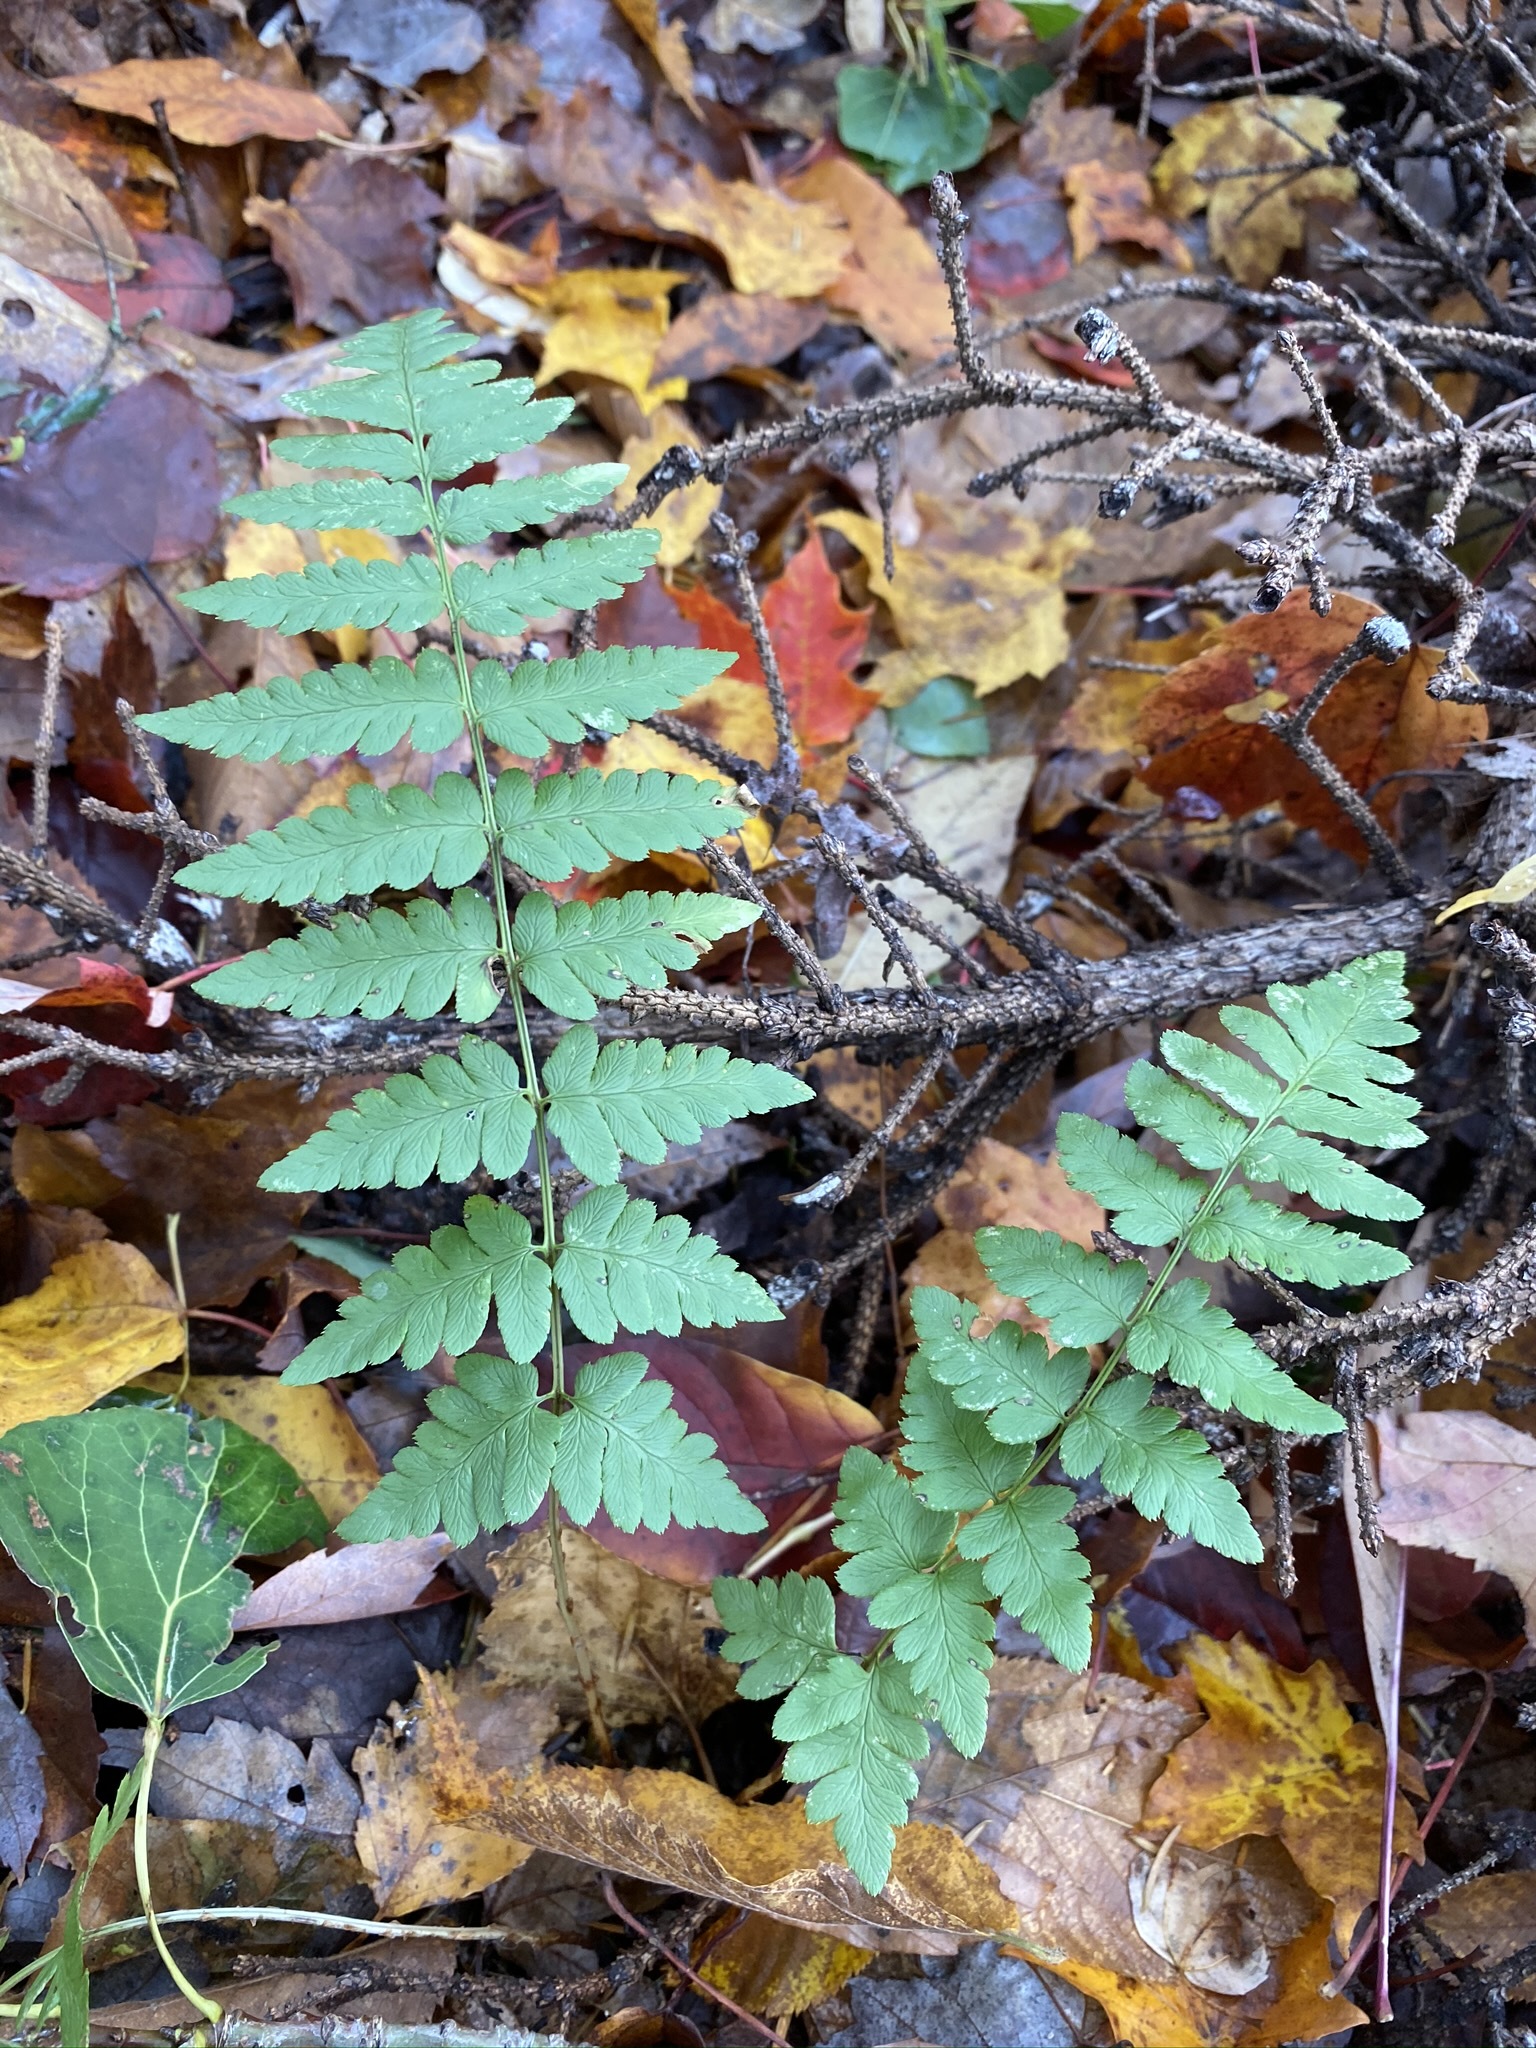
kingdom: Plantae
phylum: Tracheophyta
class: Polypodiopsida
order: Polypodiales
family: Dryopteridaceae
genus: Dryopteris
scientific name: Dryopteris cristata
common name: Crested wood fern
